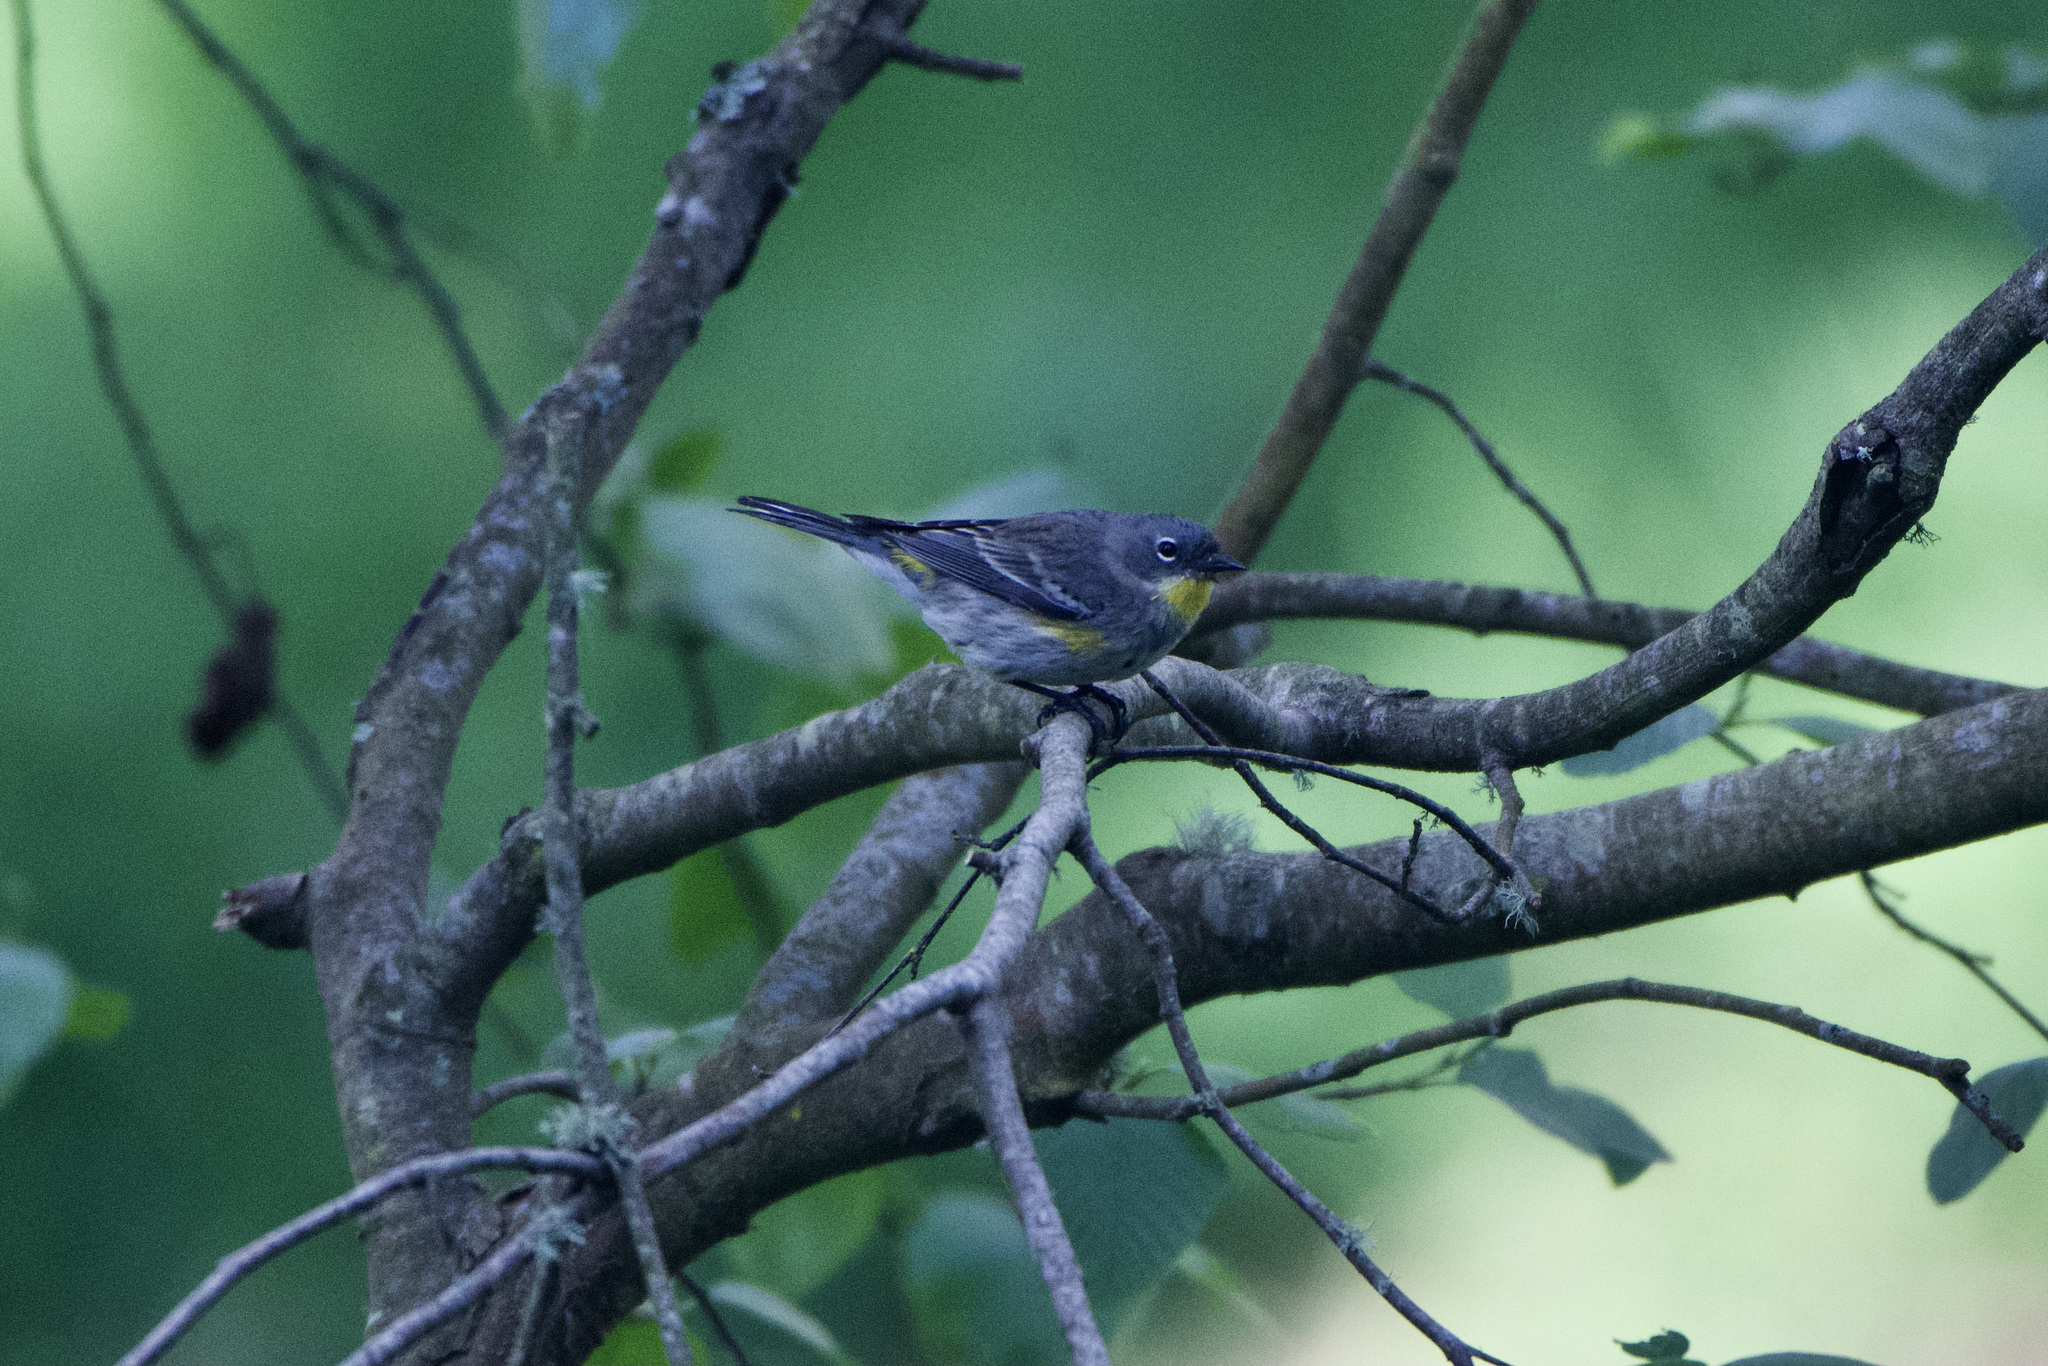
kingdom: Animalia
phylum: Chordata
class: Aves
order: Passeriformes
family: Parulidae
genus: Setophaga
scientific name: Setophaga
